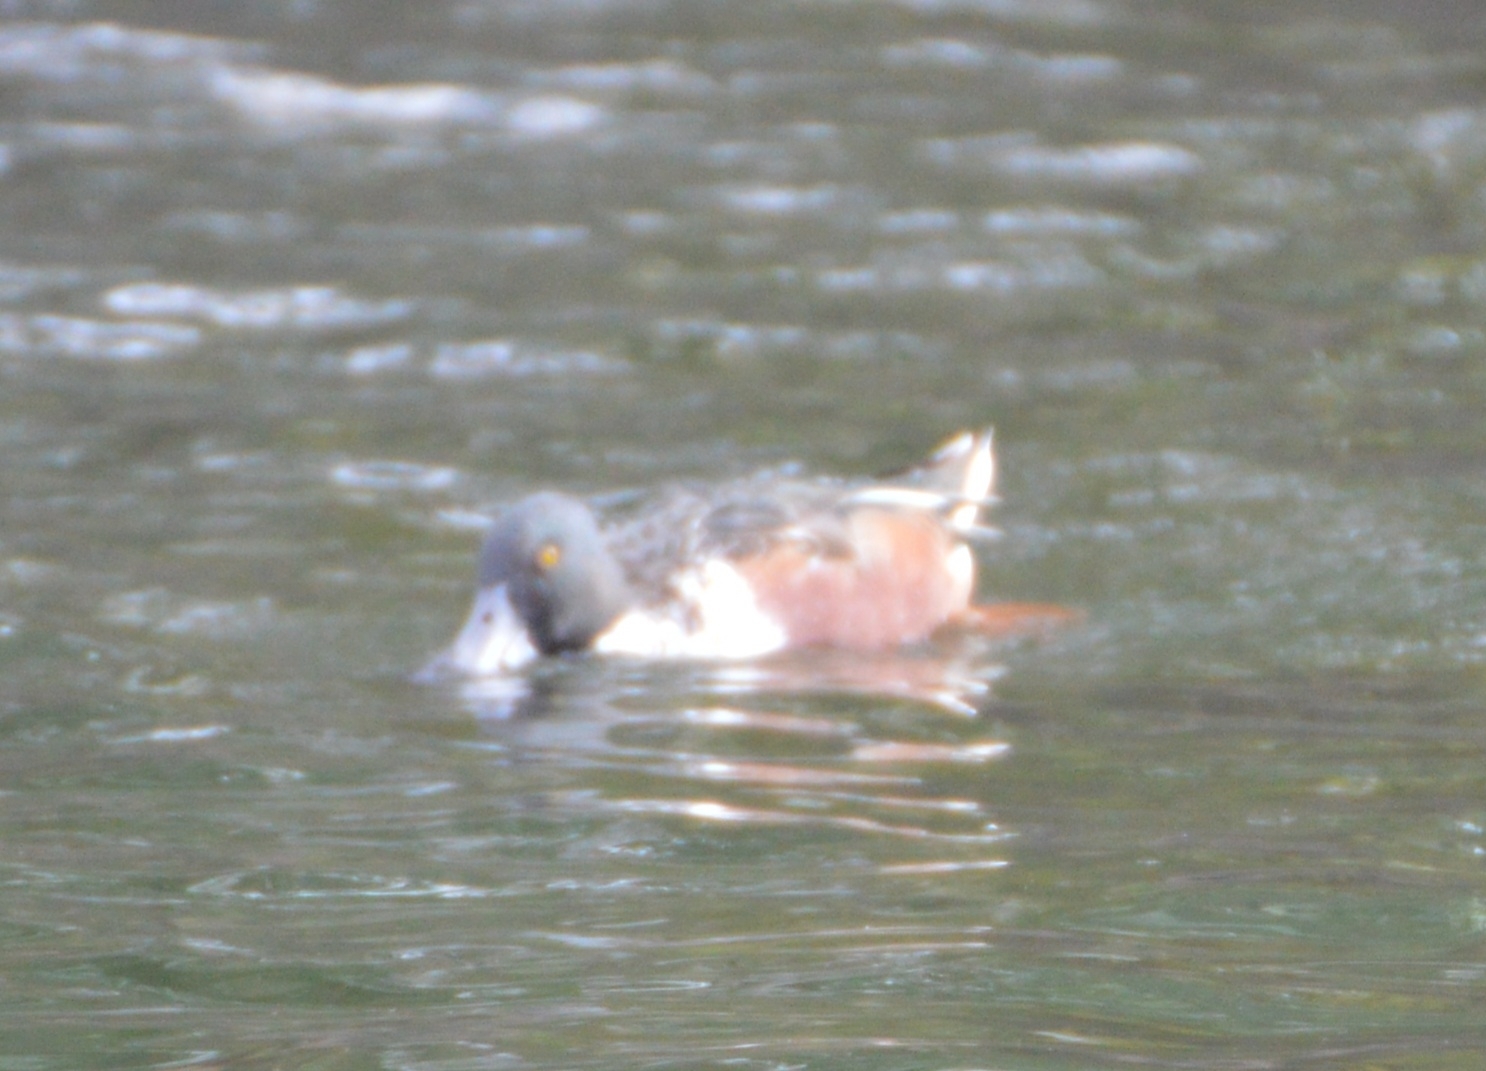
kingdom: Animalia
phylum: Chordata
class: Aves
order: Anseriformes
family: Anatidae
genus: Spatula
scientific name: Spatula clypeata
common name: Northern shoveler
